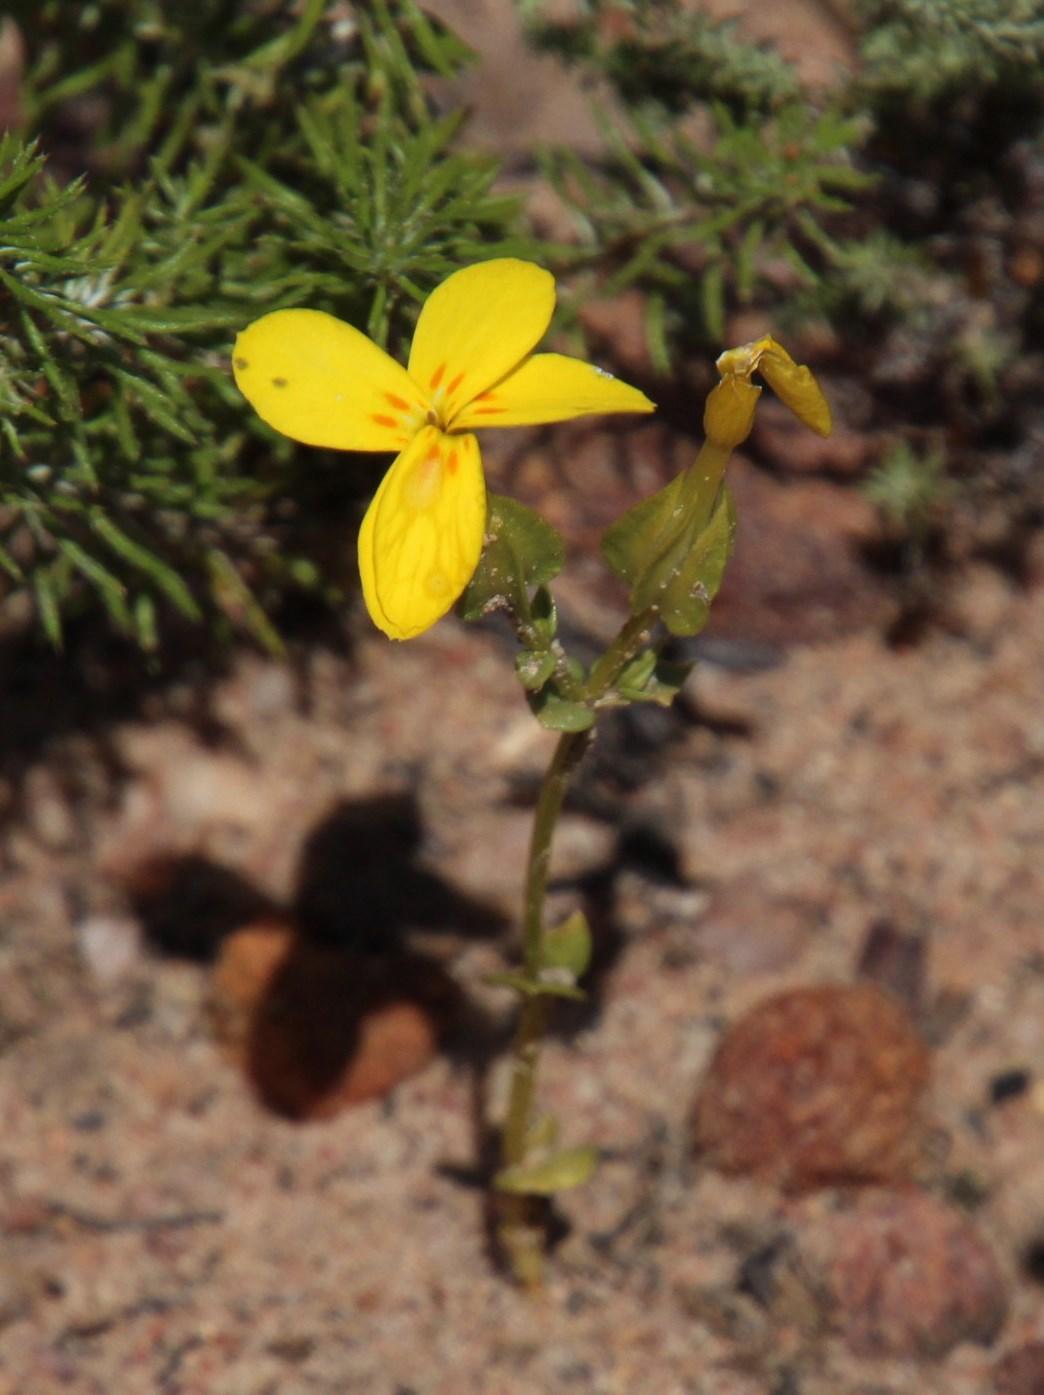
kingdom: Plantae
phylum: Tracheophyta
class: Magnoliopsida
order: Gentianales
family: Gentianaceae
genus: Sebaea
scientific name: Sebaea exacoides
